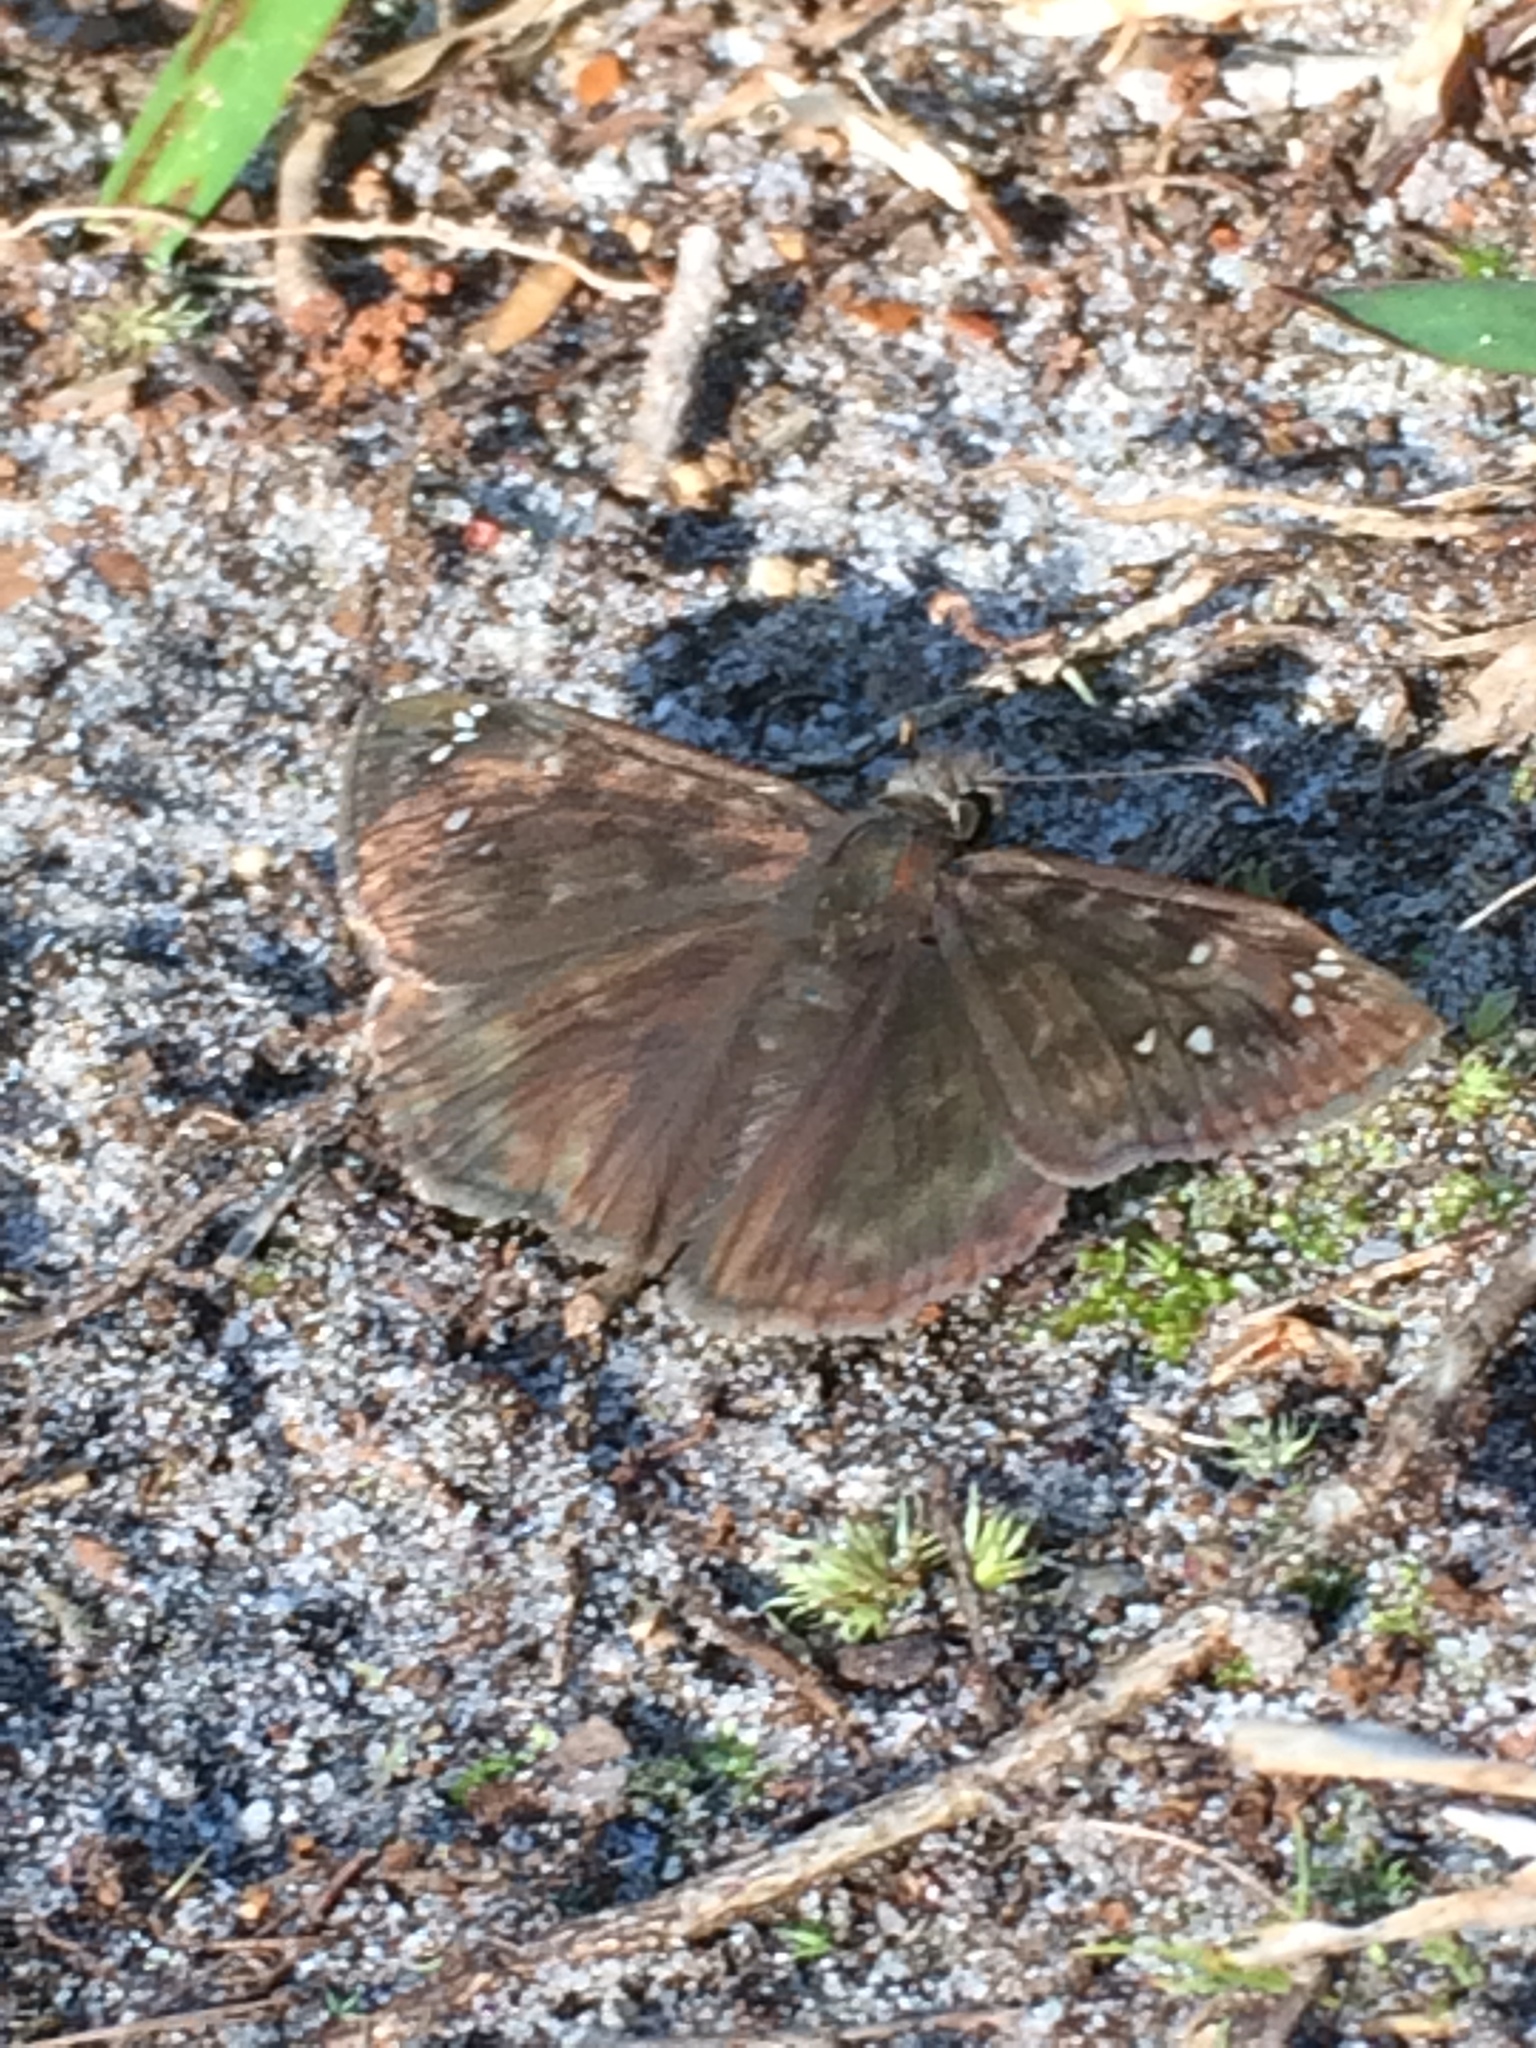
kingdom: Animalia
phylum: Arthropoda
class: Insecta
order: Lepidoptera
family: Hesperiidae
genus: Erynnis
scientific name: Erynnis horatius
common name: Horace's duskywing
